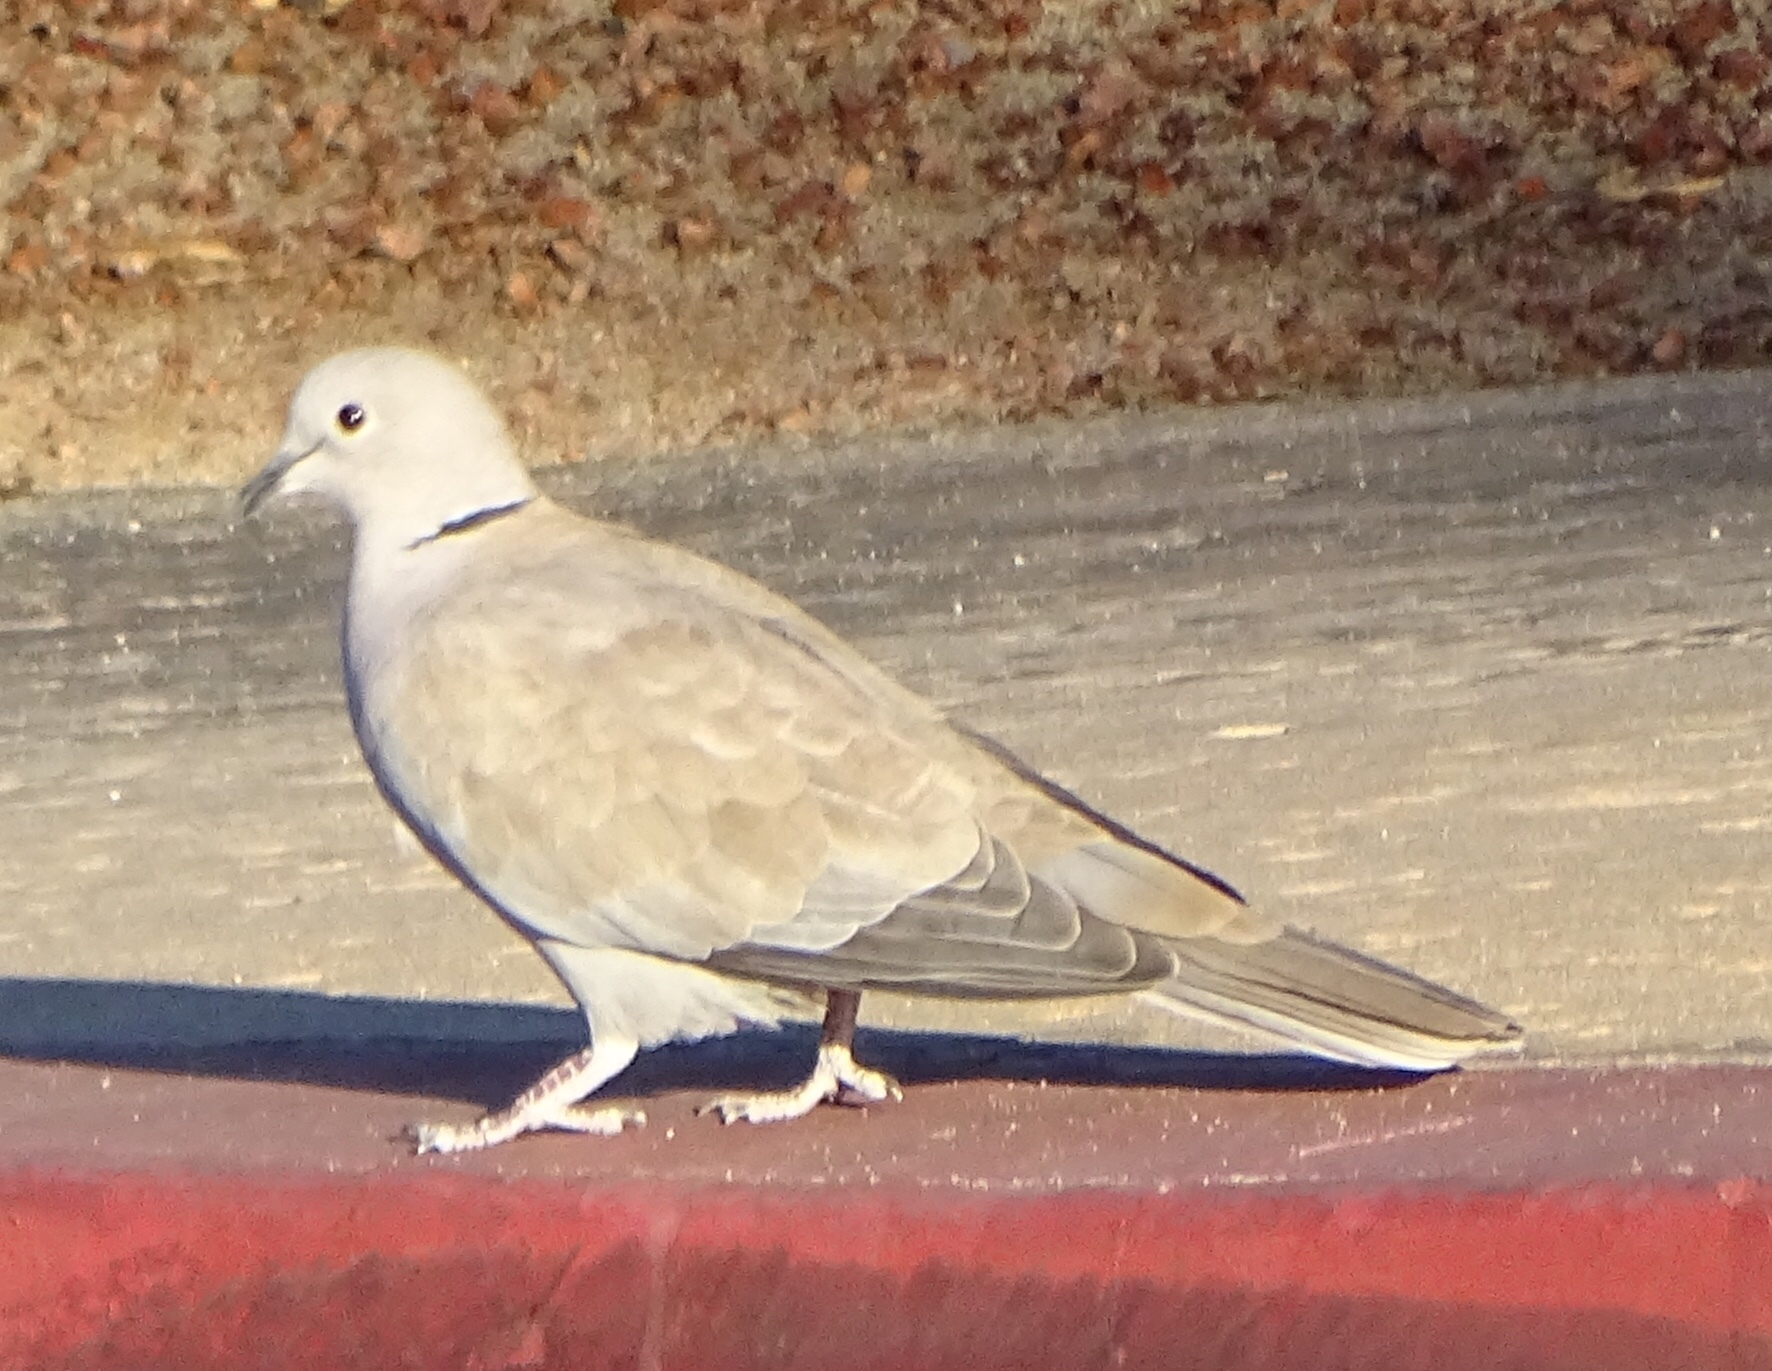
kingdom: Animalia
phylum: Chordata
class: Aves
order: Columbiformes
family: Columbidae
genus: Streptopelia
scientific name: Streptopelia decaocto
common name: Eurasian collared dove
